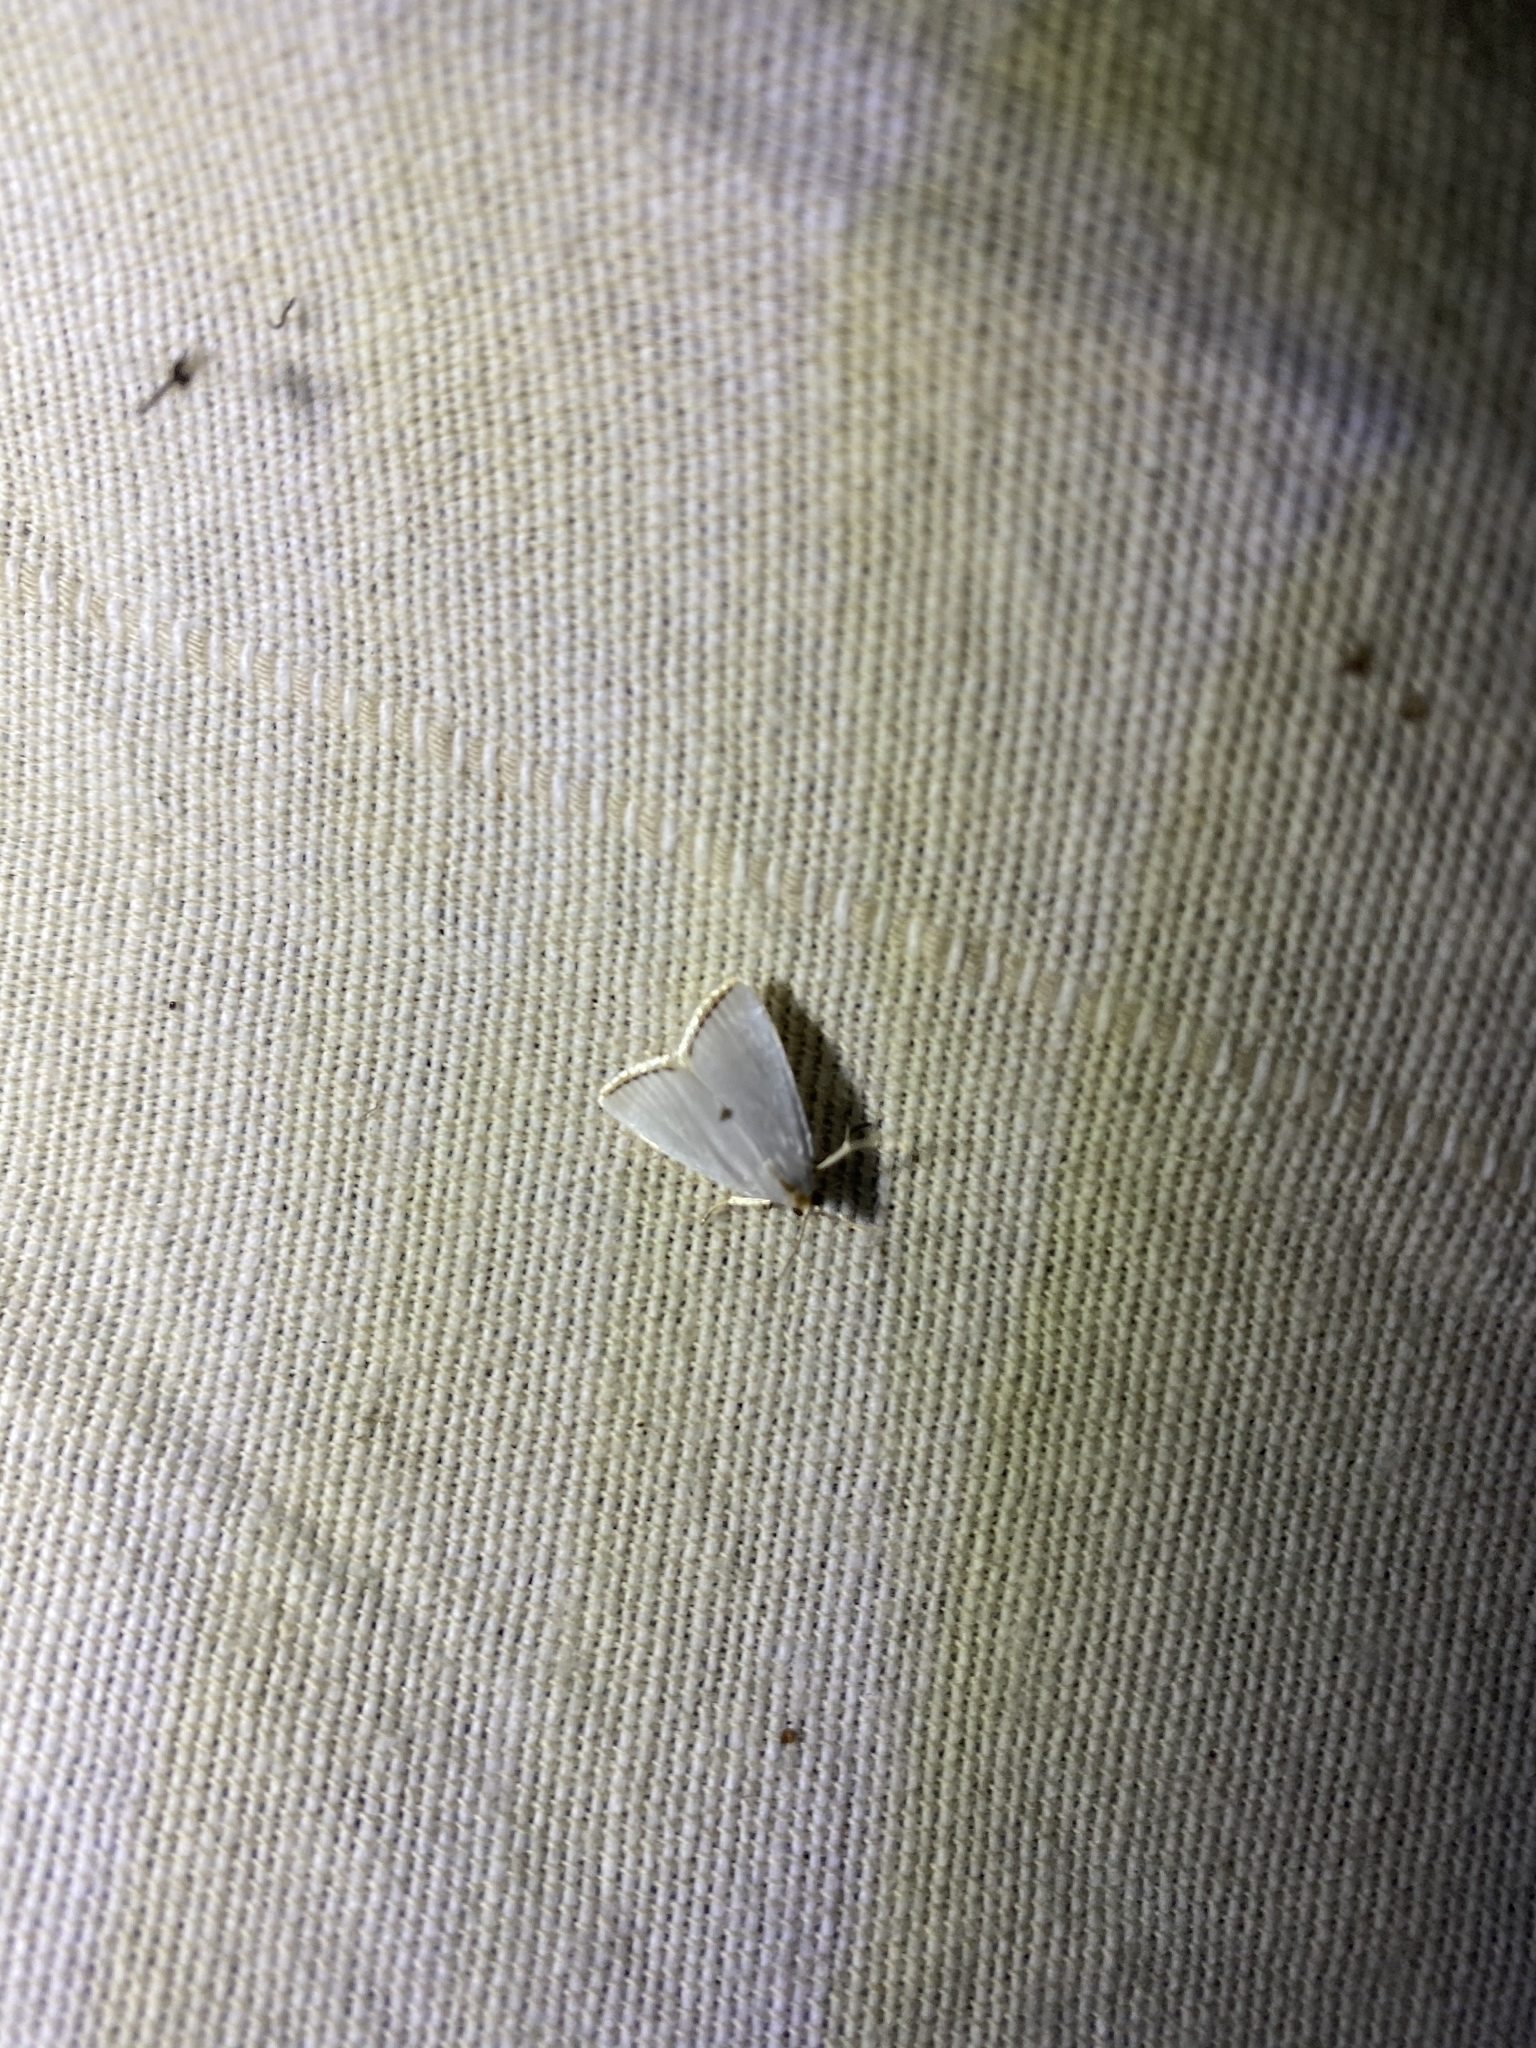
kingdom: Animalia
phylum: Arthropoda
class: Insecta
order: Lepidoptera
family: Crambidae
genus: Argyria
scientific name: Argyria nivalis
